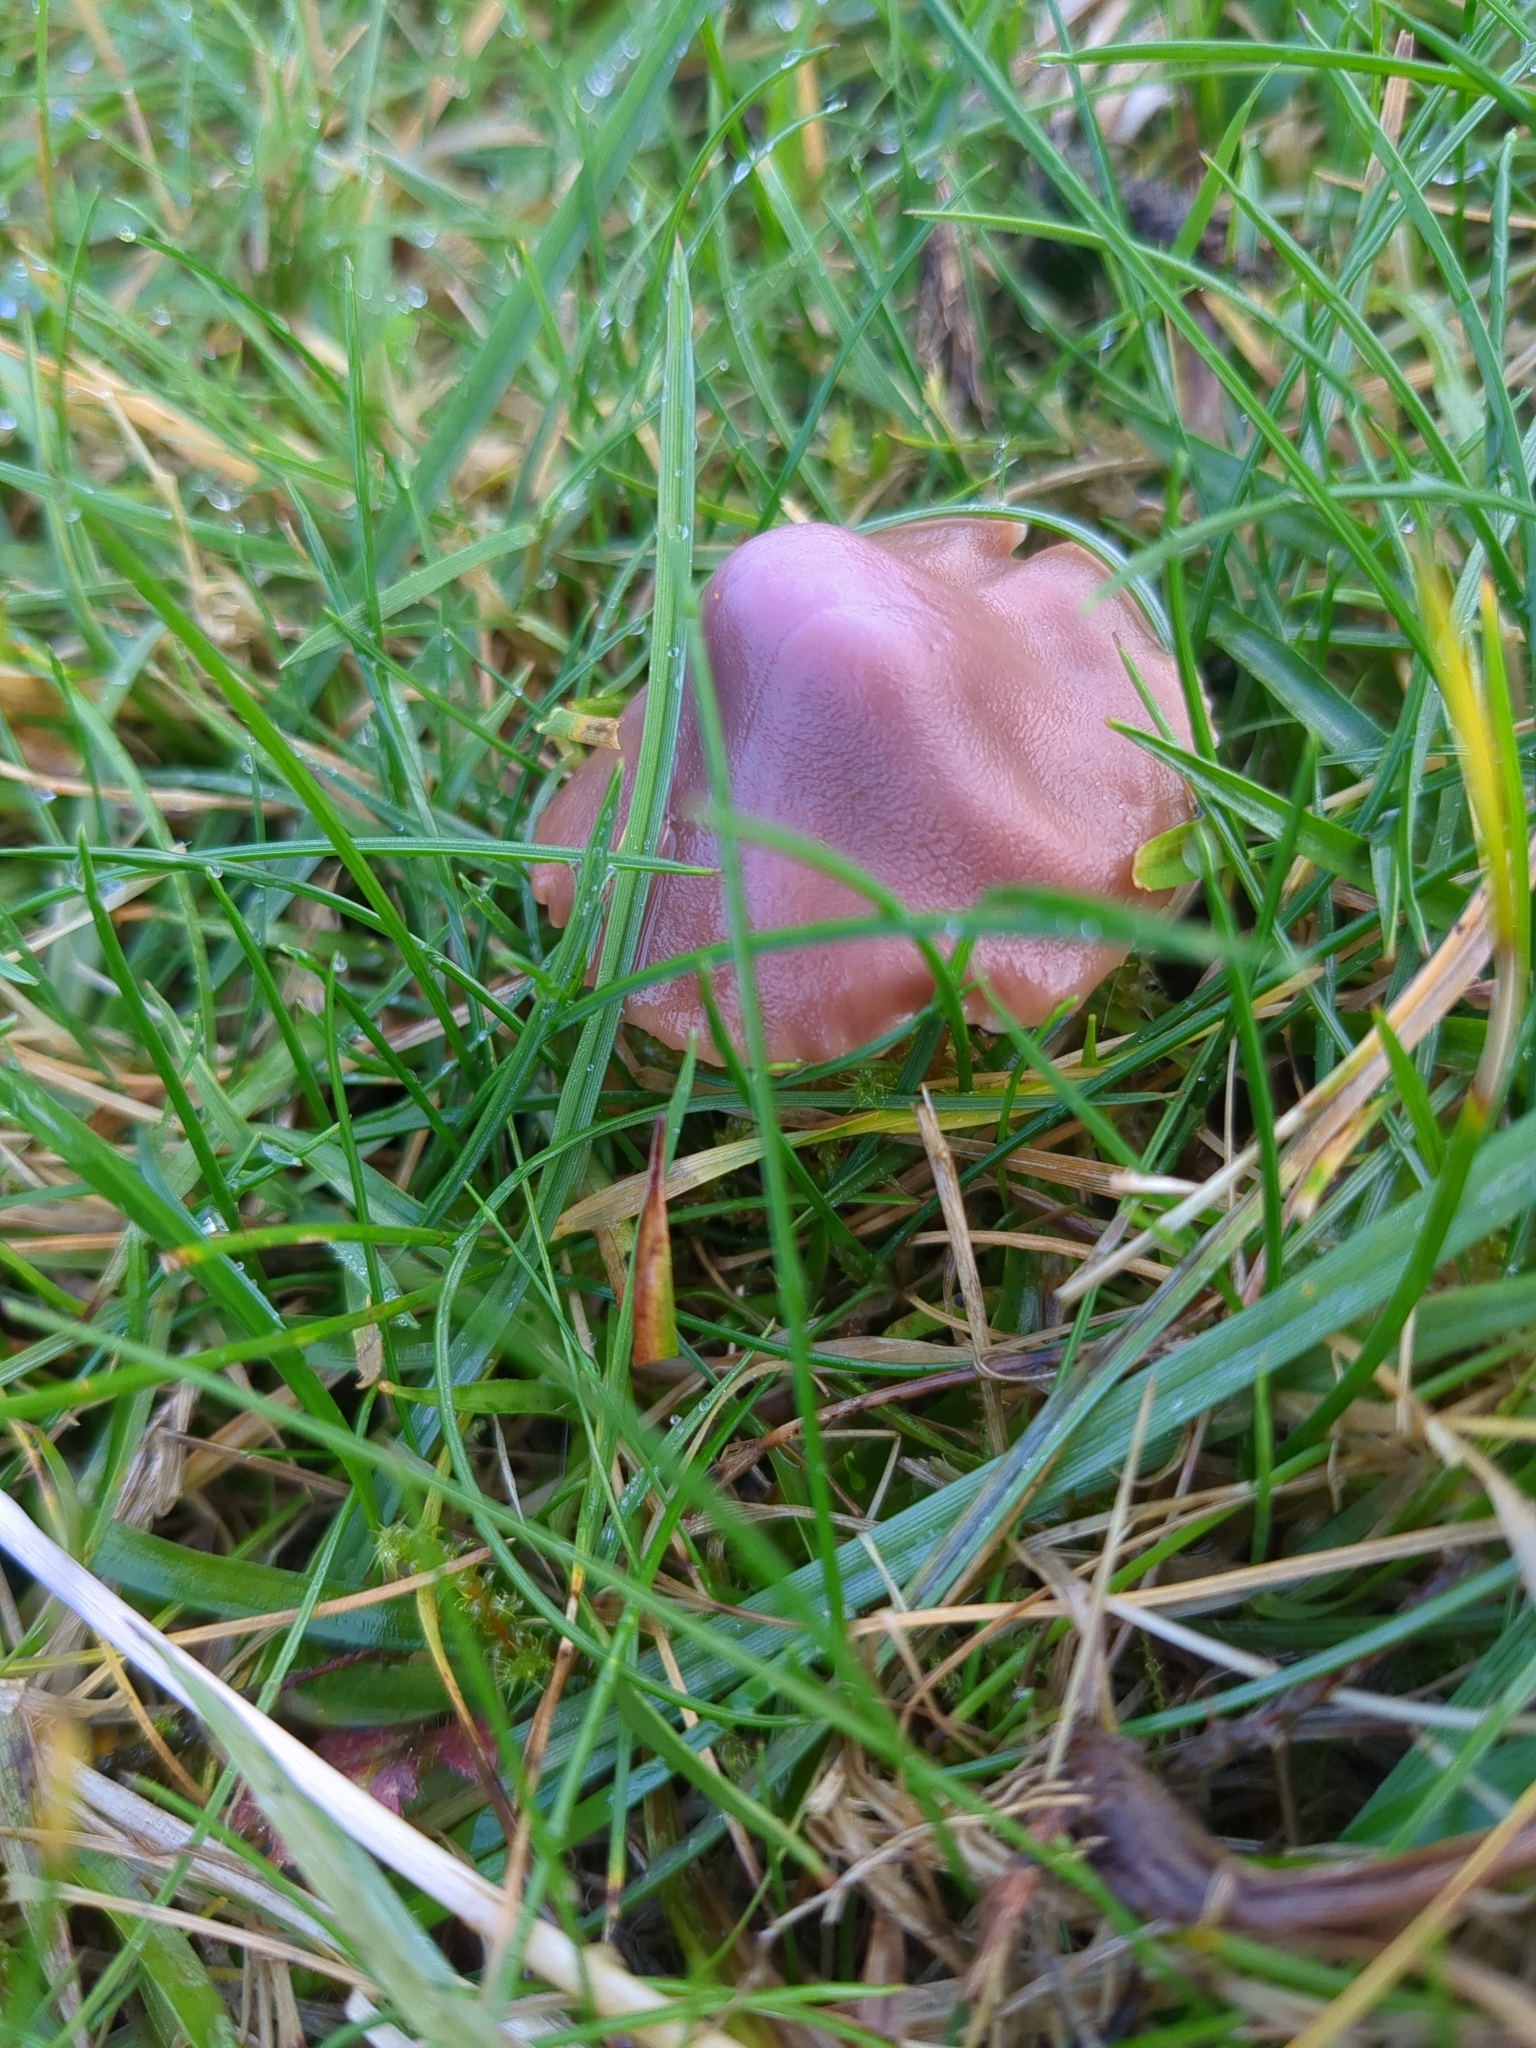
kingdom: Fungi
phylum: Basidiomycota
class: Agaricomycetes
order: Agaricales
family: Hygrophoraceae
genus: Gliophorus
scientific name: Gliophorus reginae
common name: Jubilee waxcap
